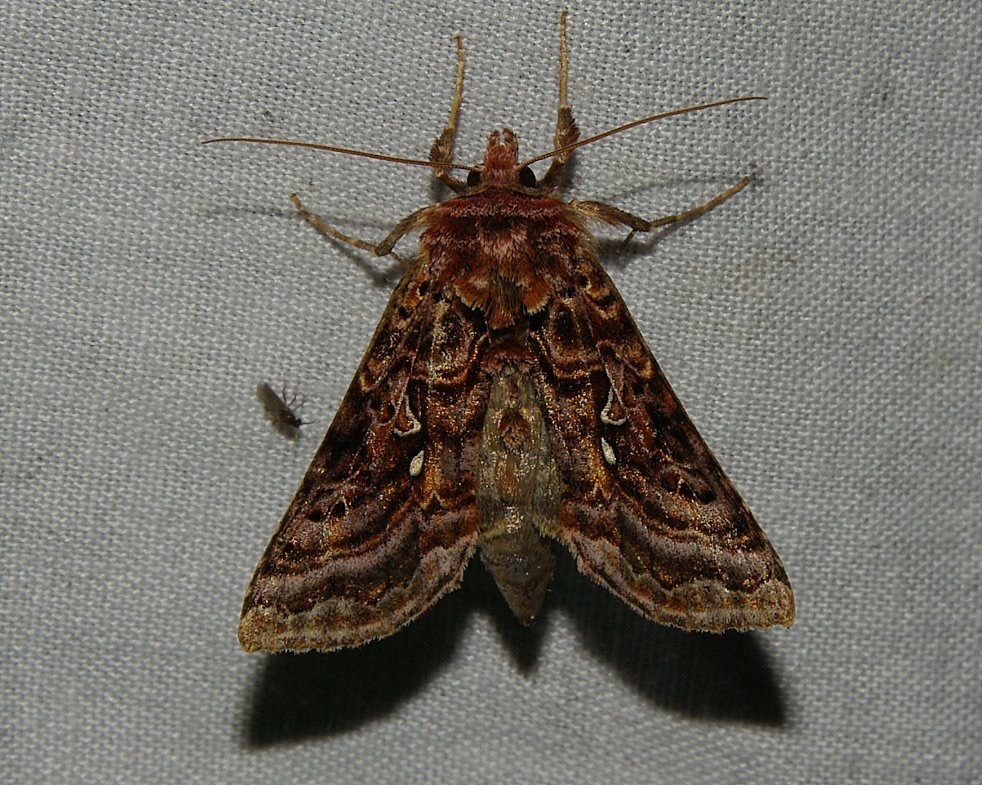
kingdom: Animalia
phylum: Arthropoda
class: Insecta
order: Lepidoptera
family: Noctuidae
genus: Autographa
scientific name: Autographa mappa
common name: Wavy chestnut y moth
